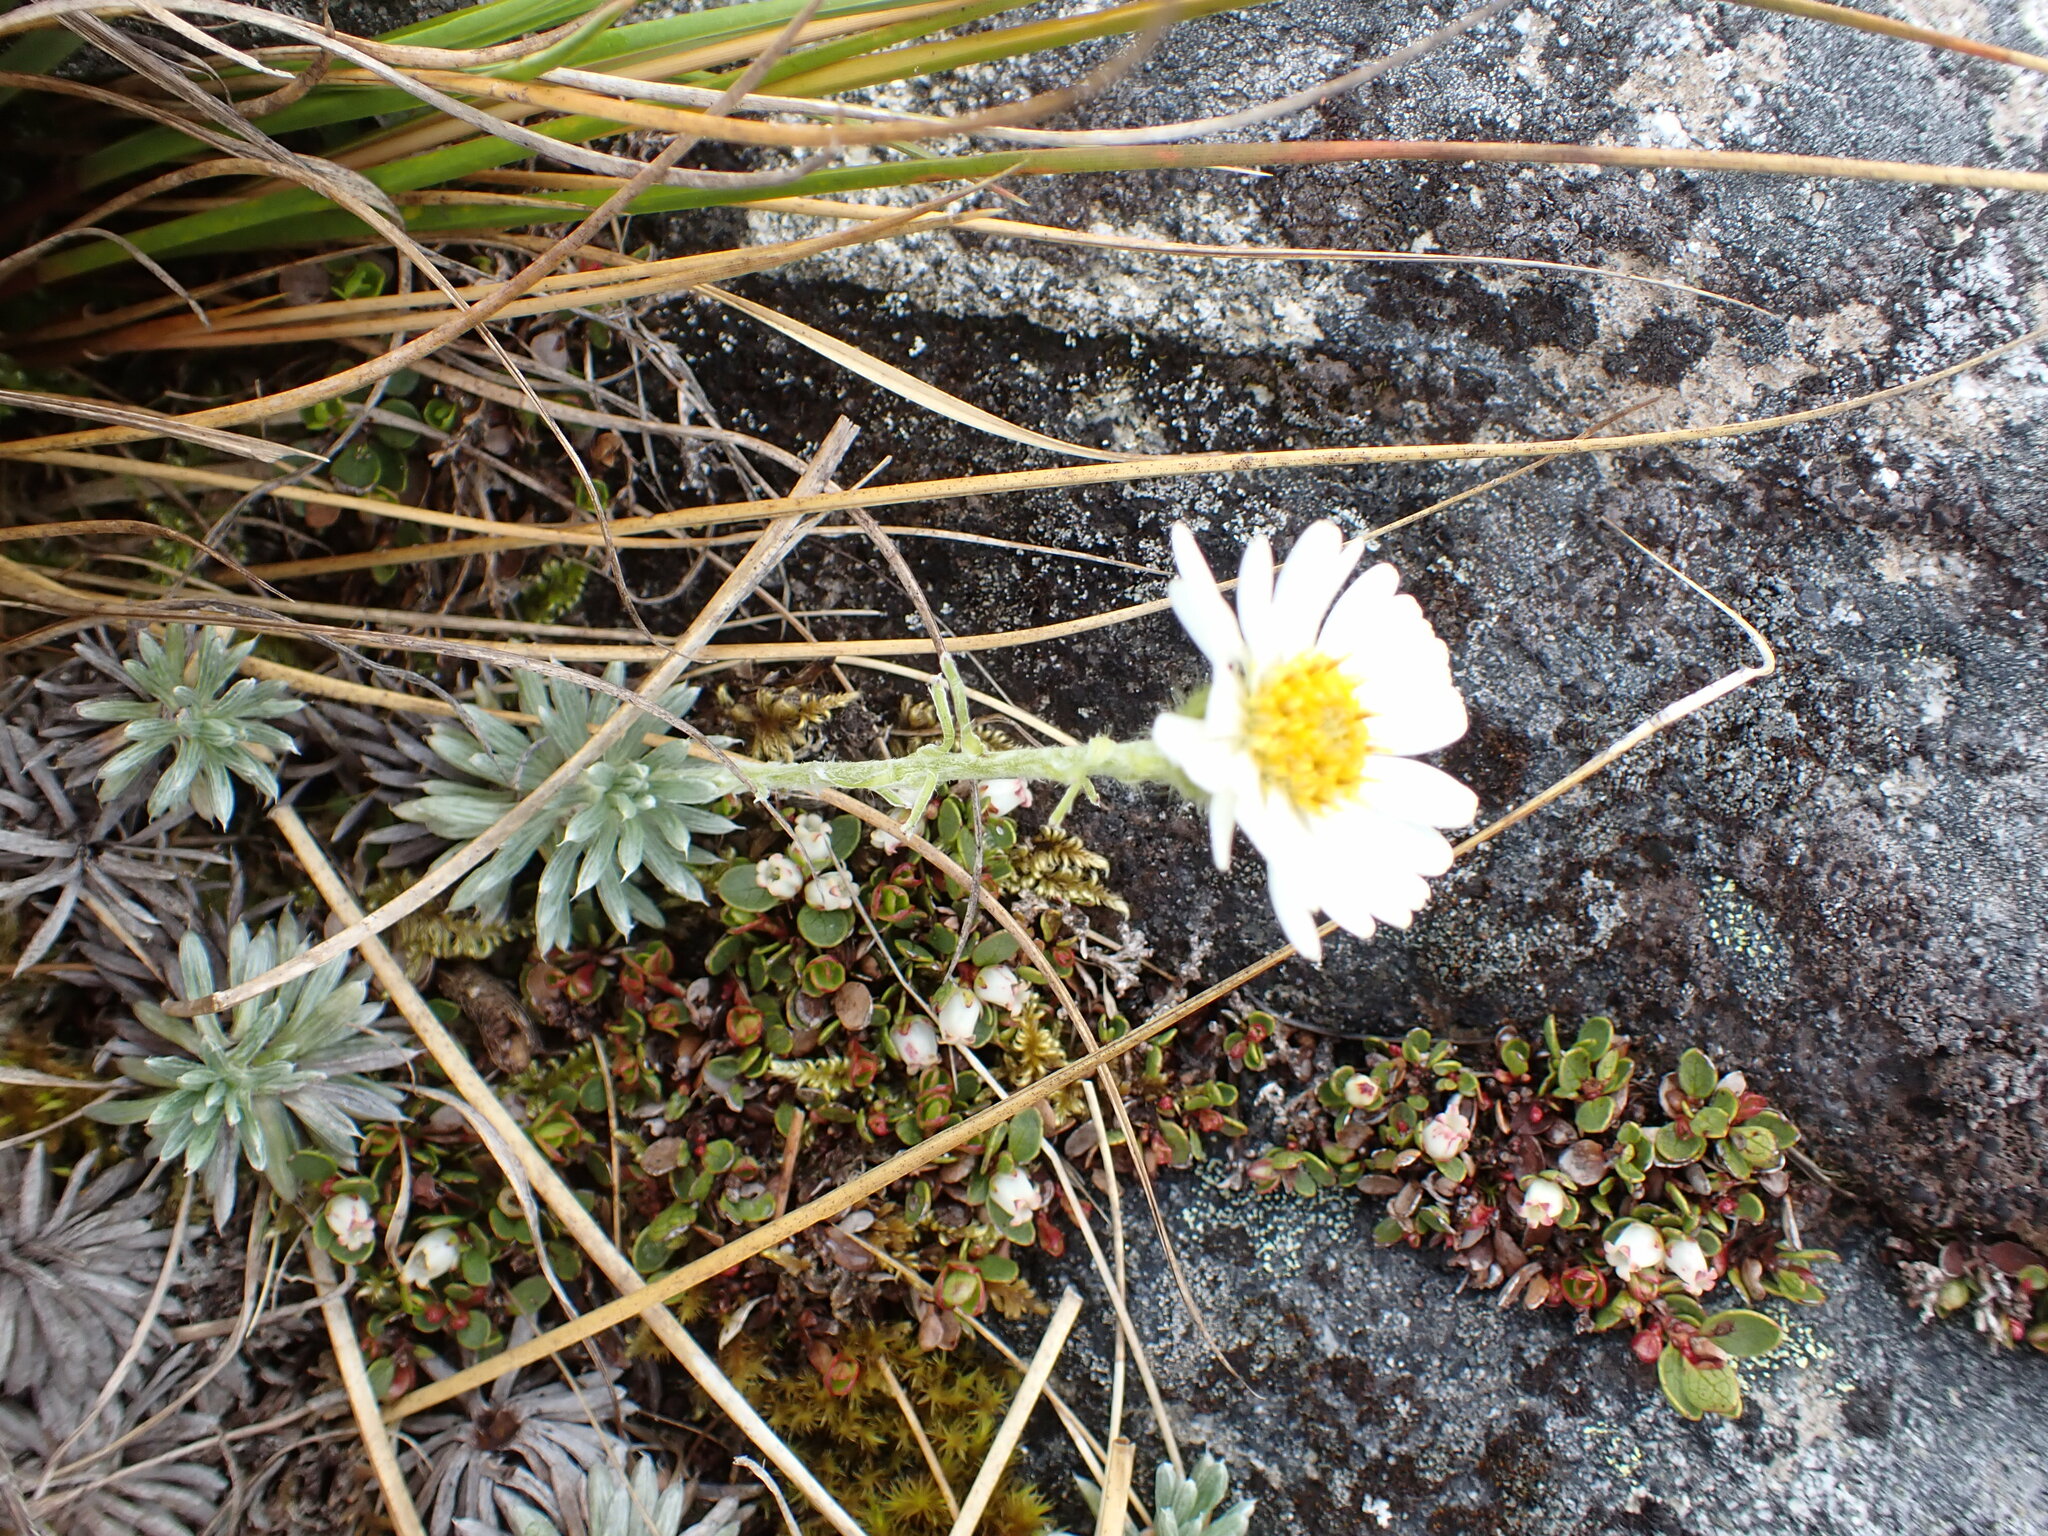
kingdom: Plantae
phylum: Tracheophyta
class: Magnoliopsida
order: Asterales
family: Asteraceae
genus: Celmisia
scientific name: Celmisia hectorii
